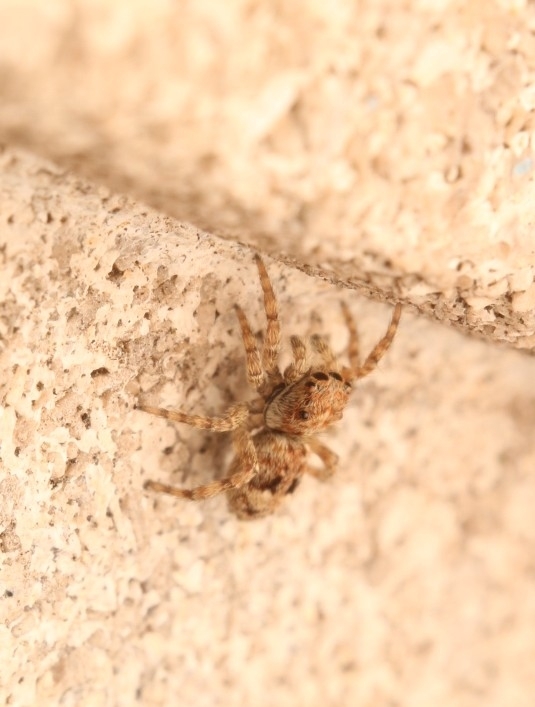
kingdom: Animalia
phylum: Arthropoda
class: Arachnida
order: Araneae
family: Salticidae
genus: Attulus
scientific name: Attulus fasciger
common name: Asiatic wall jumping spider
